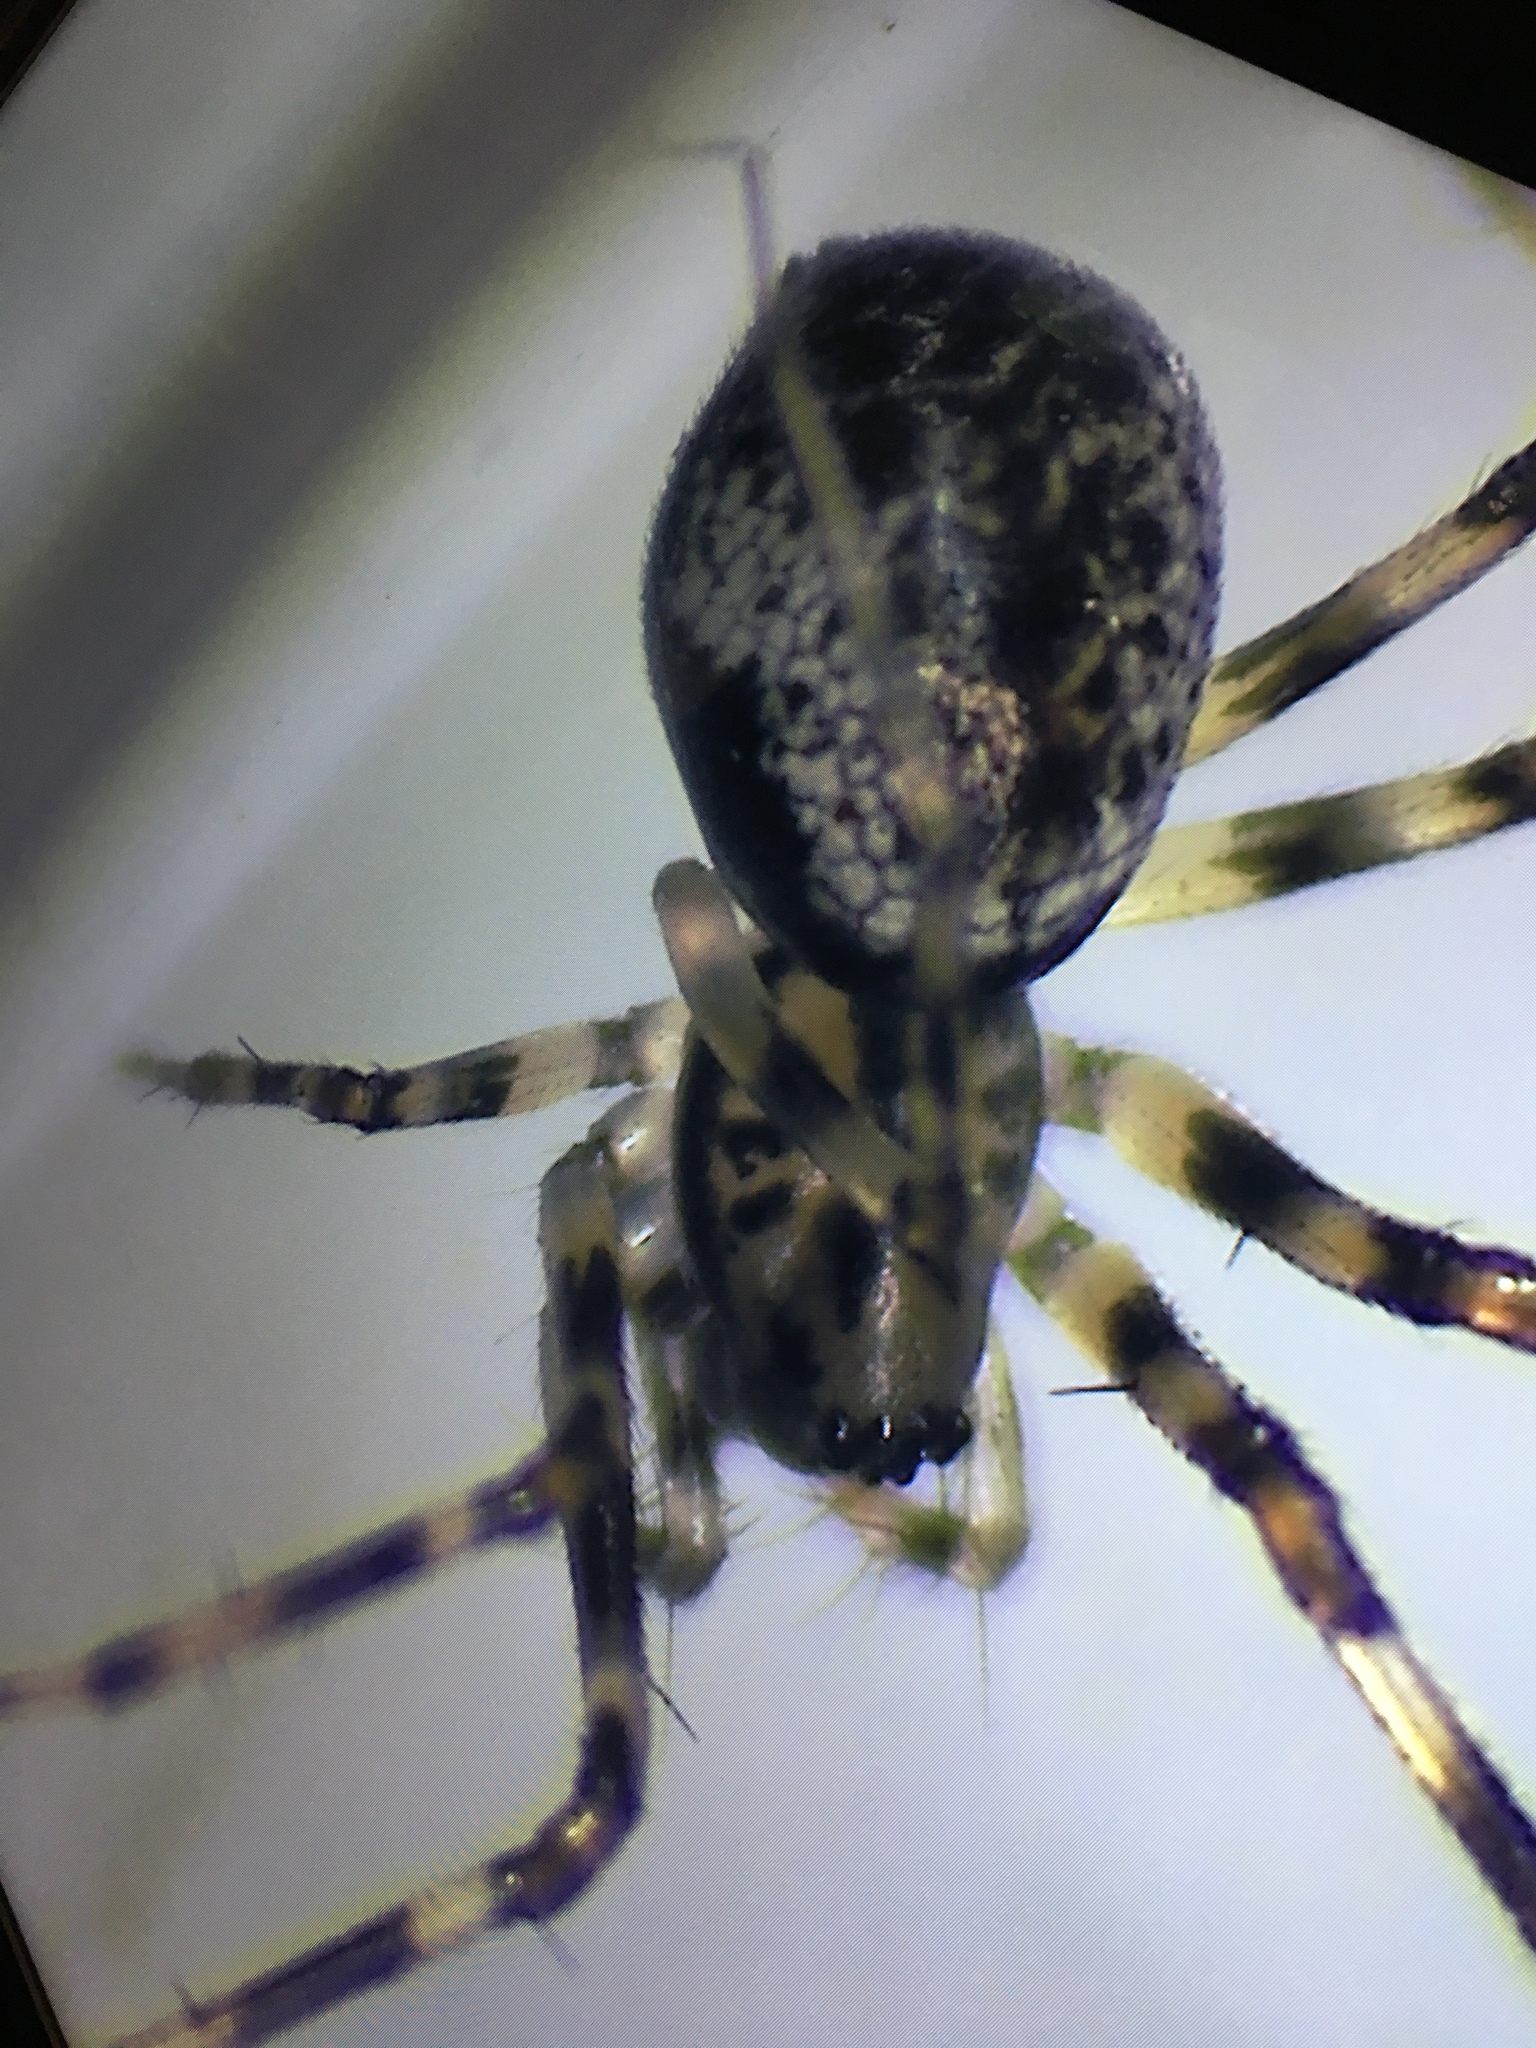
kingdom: Animalia
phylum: Arthropoda
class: Arachnida
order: Araneae
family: Linyphiidae
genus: Drapetisca
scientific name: Drapetisca alteranda
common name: Northern long-toothed sheetweaver
